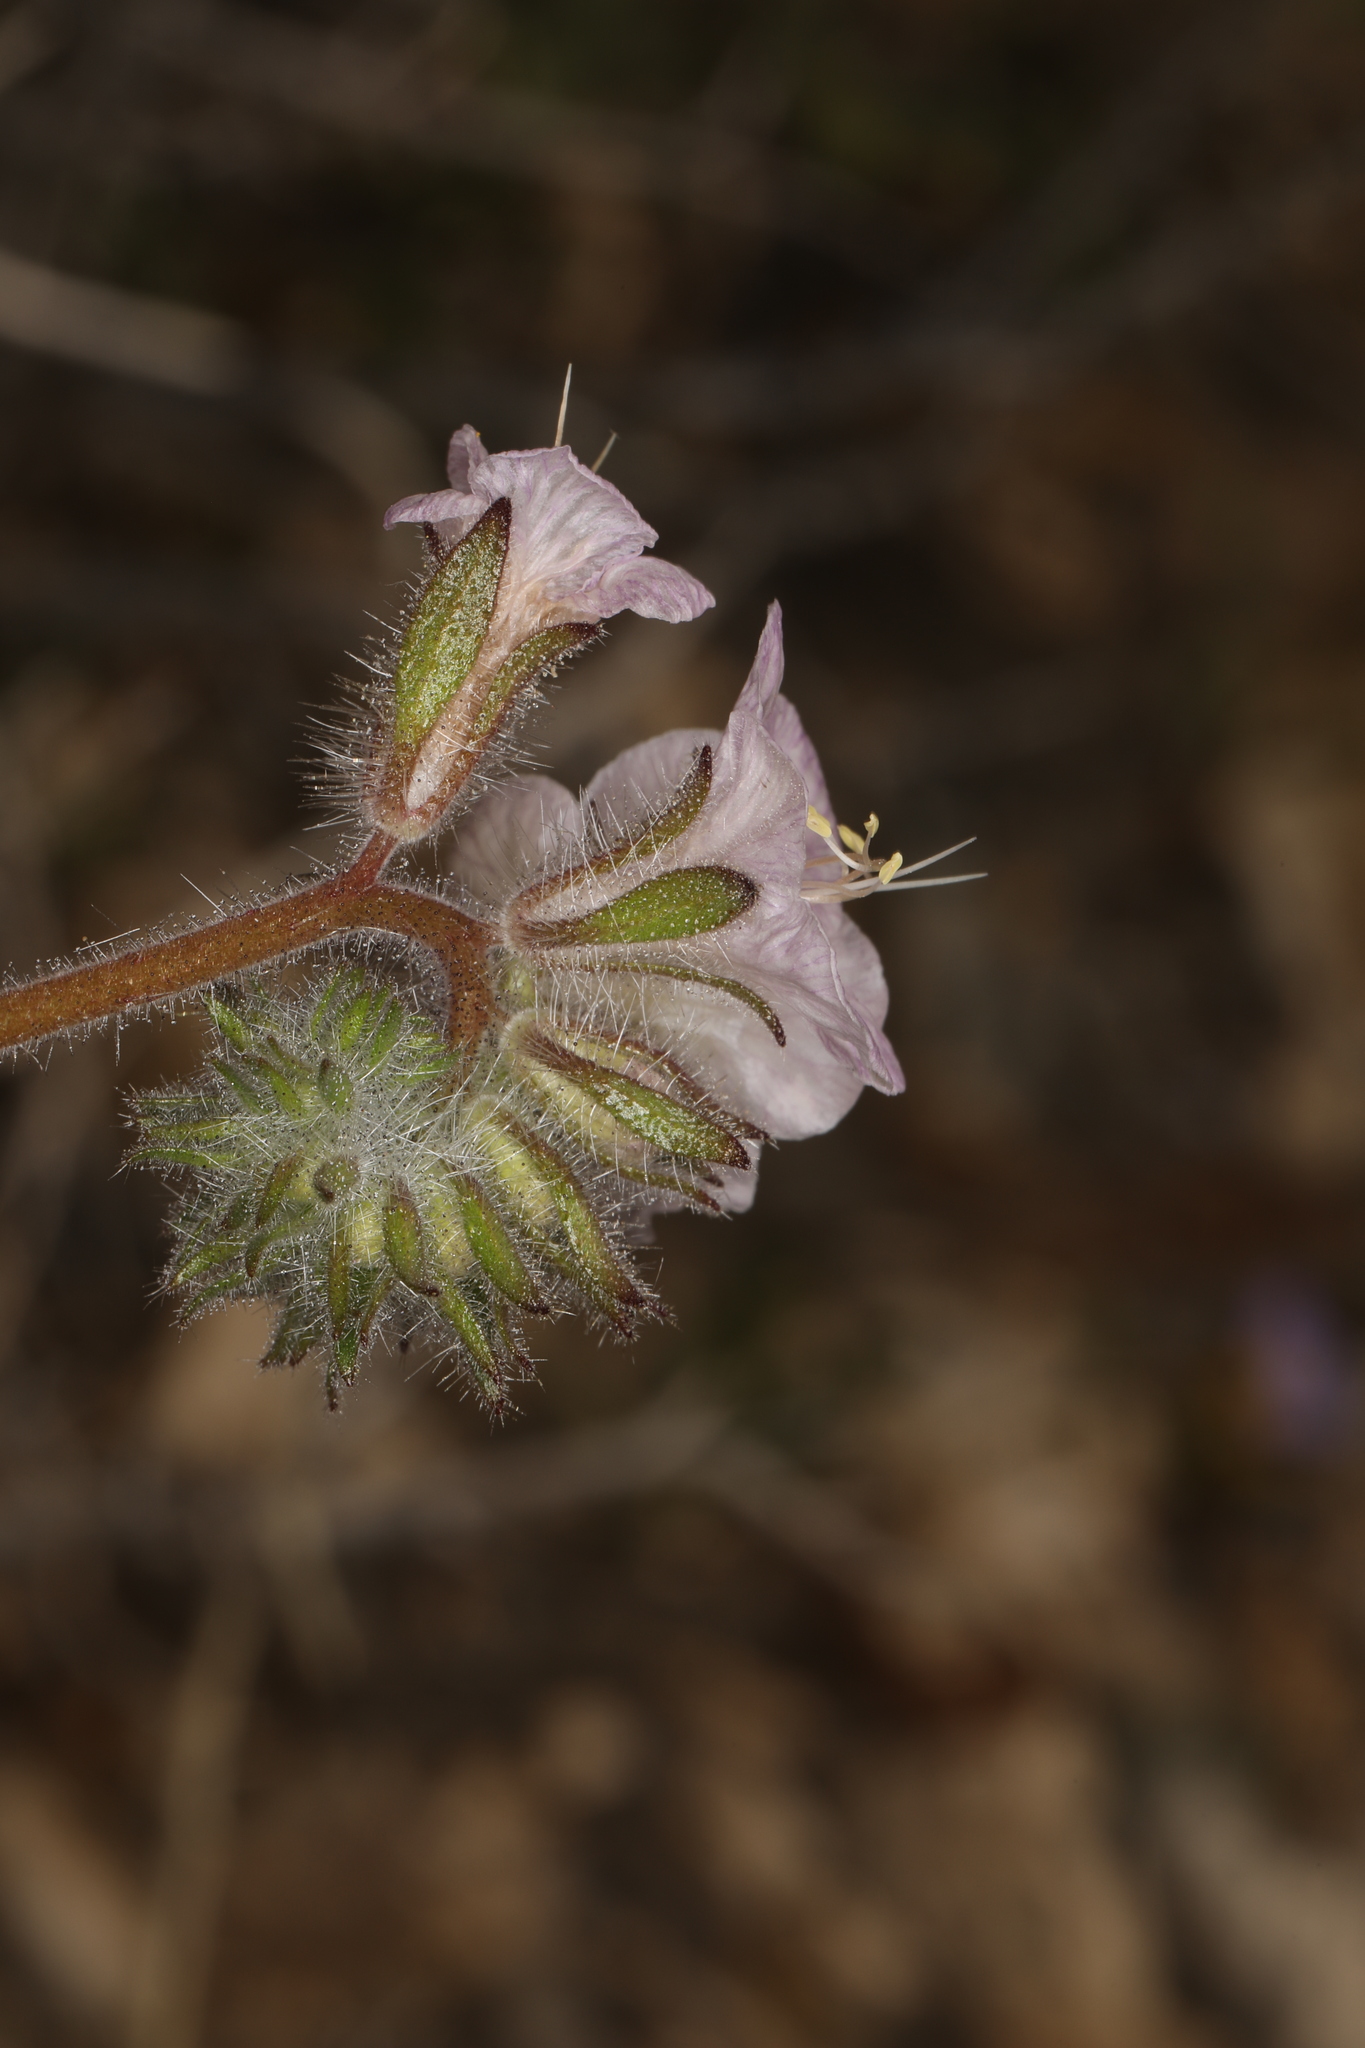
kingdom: Plantae
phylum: Tracheophyta
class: Magnoliopsida
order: Boraginales
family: Hydrophyllaceae
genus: Phacelia
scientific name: Phacelia vallis-mortae
